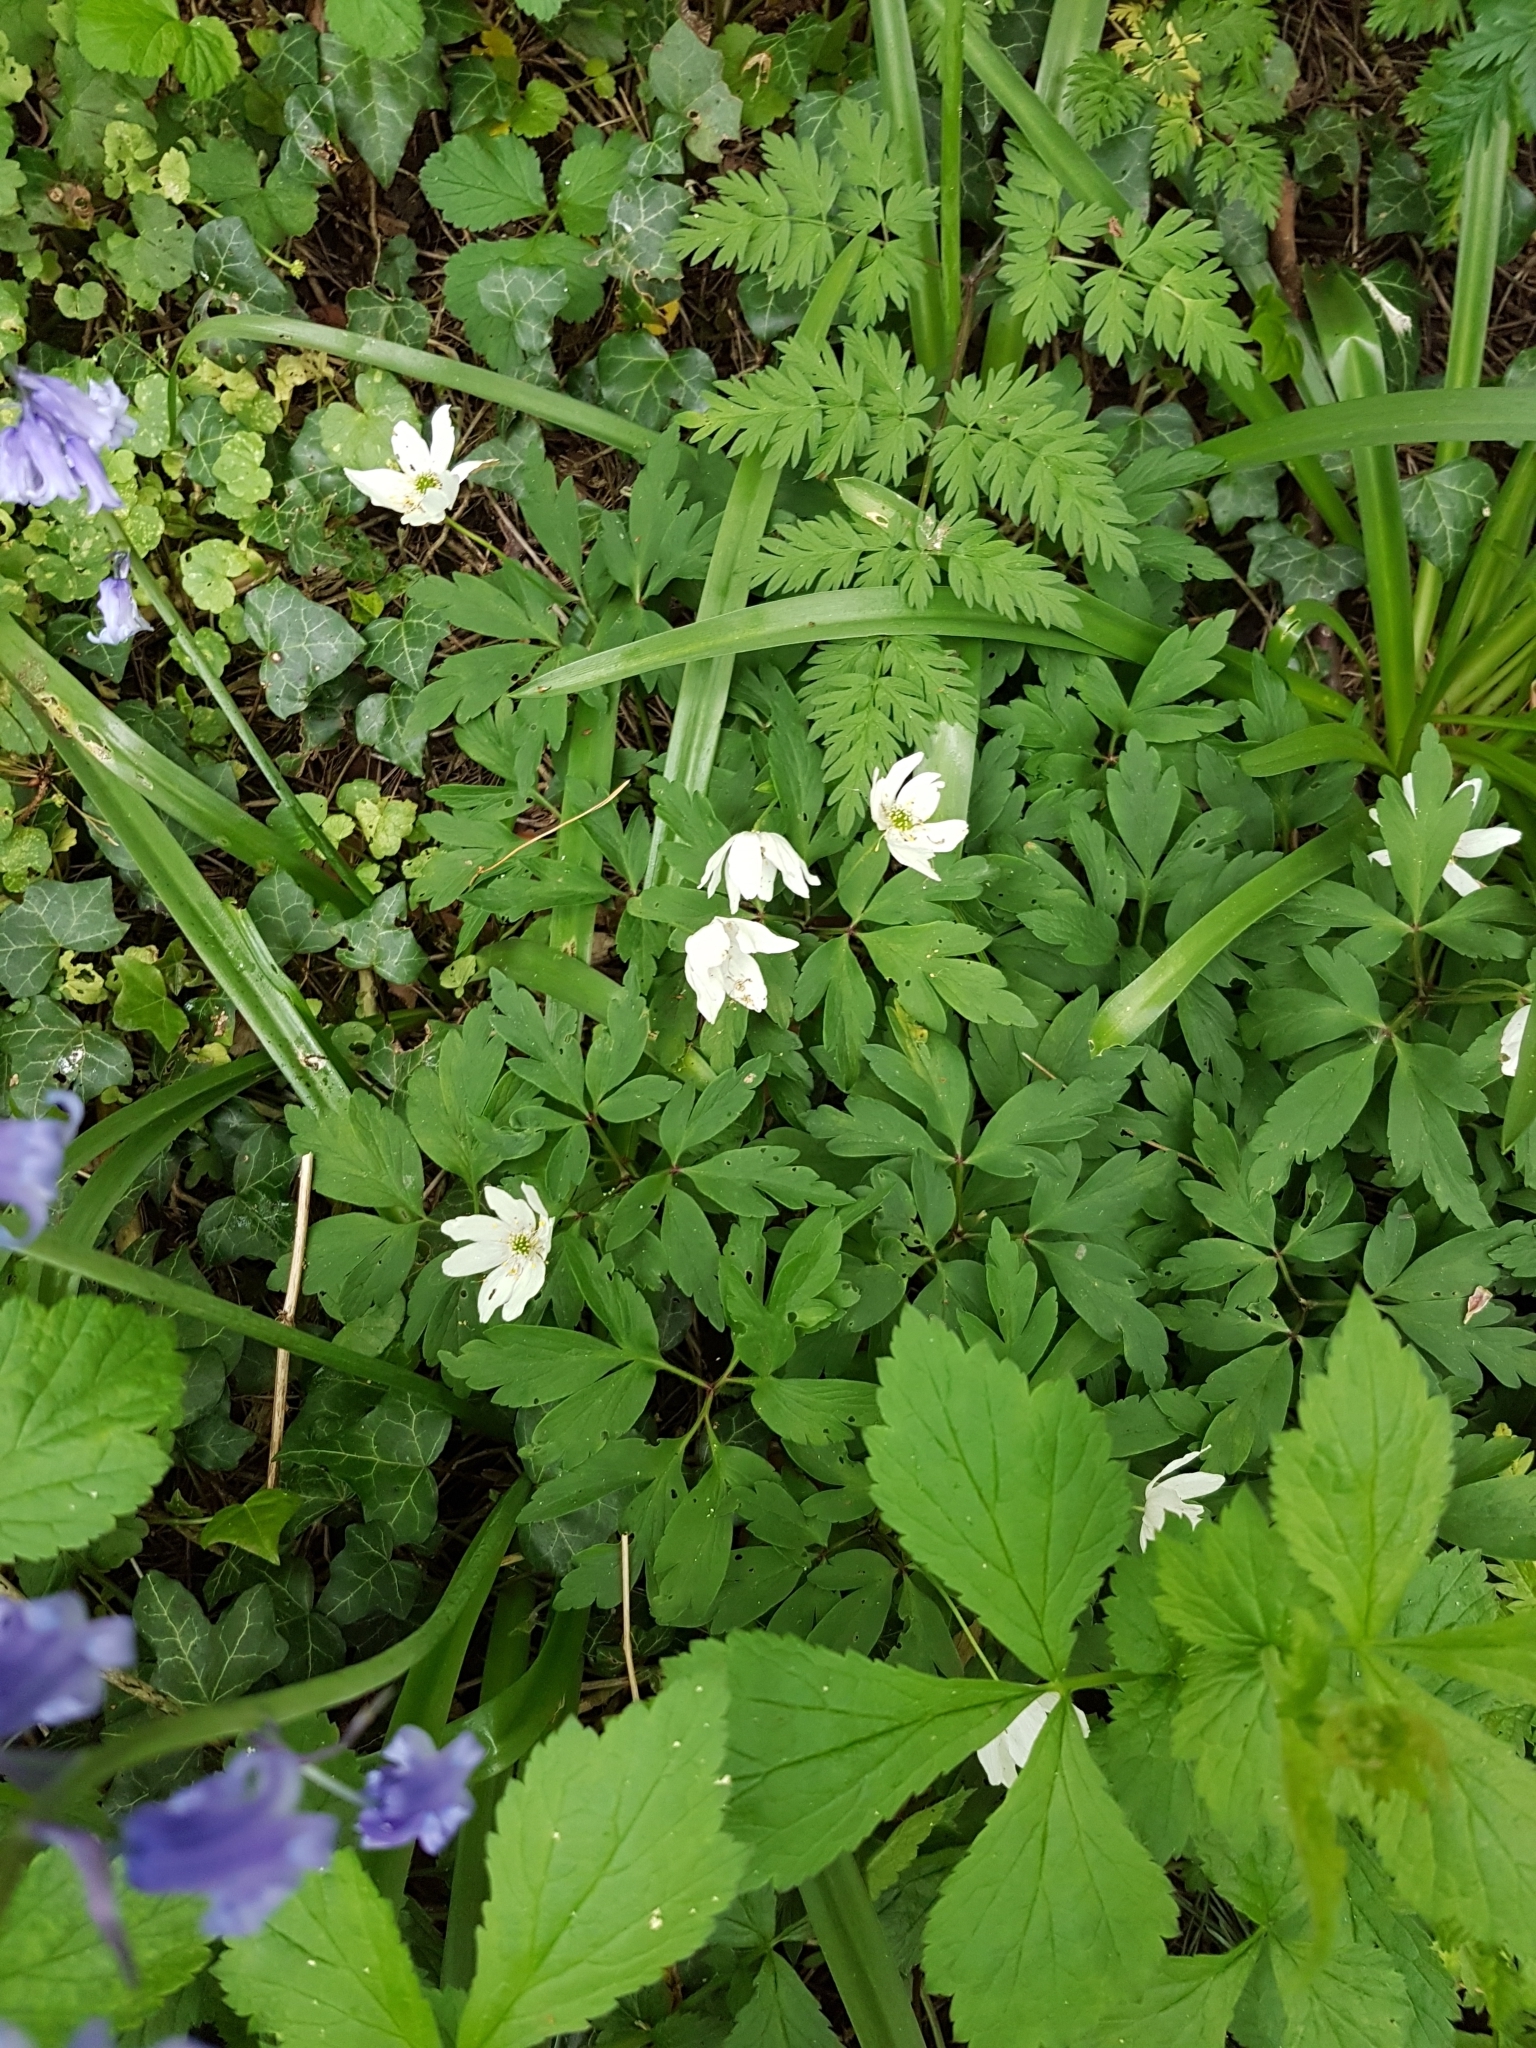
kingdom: Plantae
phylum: Tracheophyta
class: Magnoliopsida
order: Ranunculales
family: Ranunculaceae
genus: Anemone
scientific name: Anemone nemorosa
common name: Wood anemone
